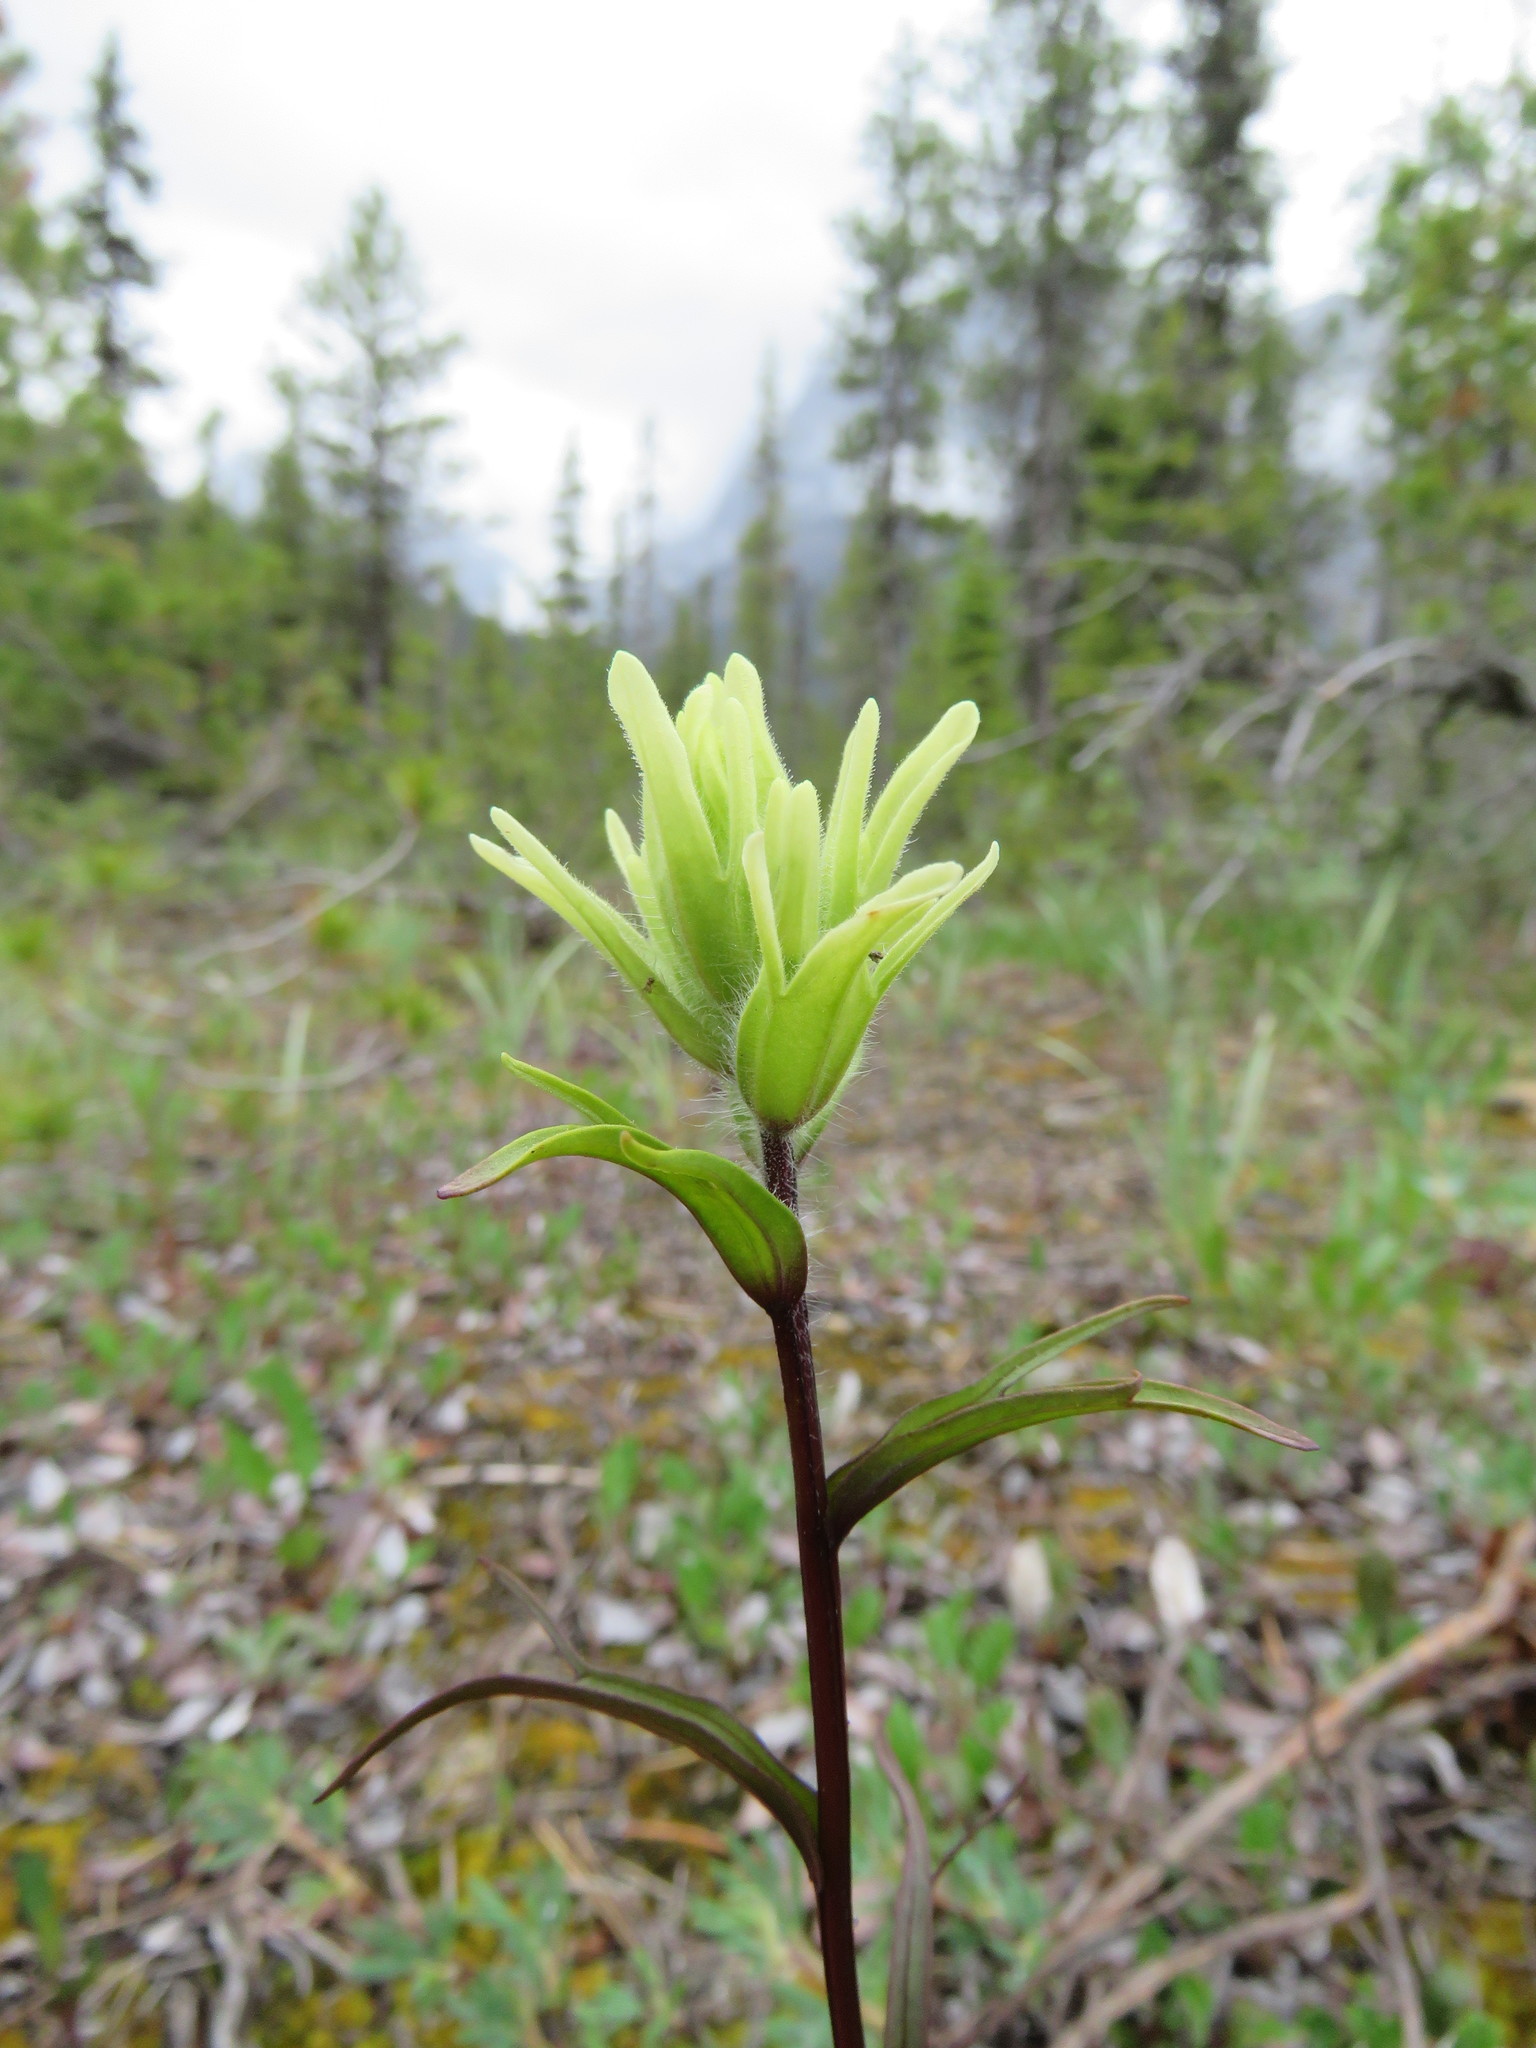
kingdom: Plantae
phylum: Tracheophyta
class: Magnoliopsida
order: Lamiales
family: Orobanchaceae
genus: Castilleja
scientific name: Castilleja lutescens
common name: Yellowish paintbrush
